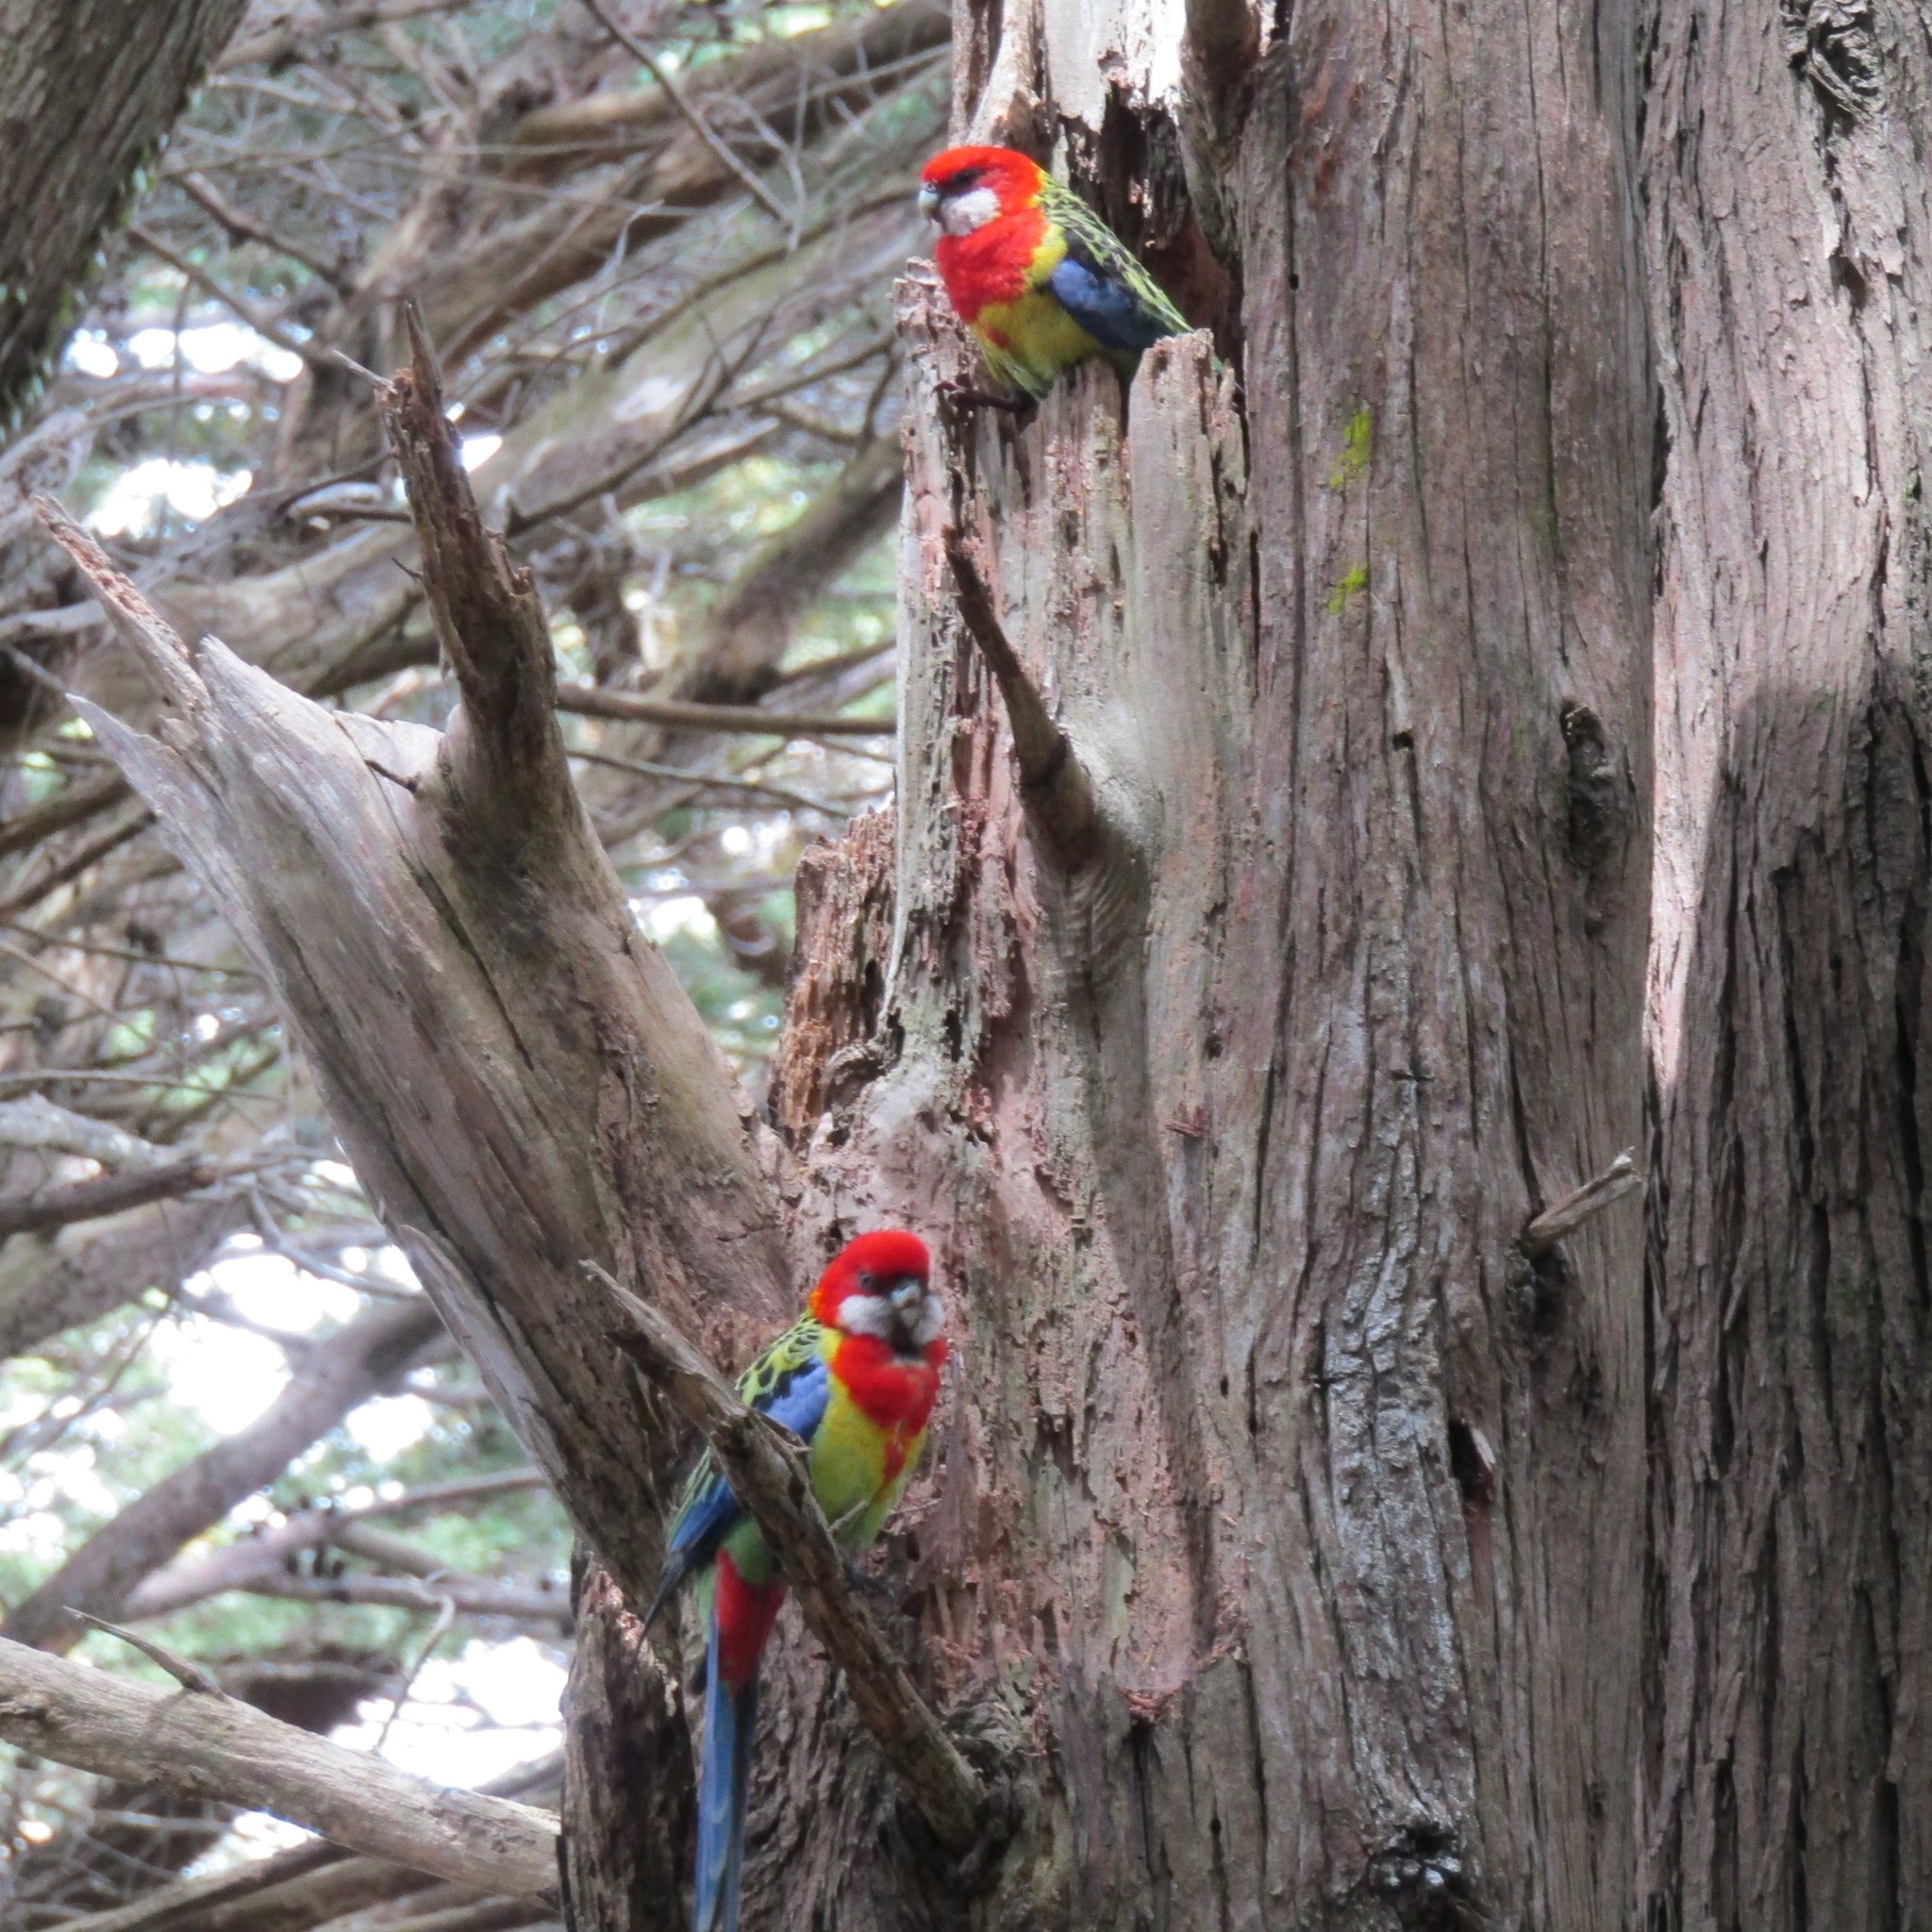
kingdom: Animalia
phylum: Chordata
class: Aves
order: Psittaciformes
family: Psittacidae
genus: Platycercus
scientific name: Platycercus eximius
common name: Eastern rosella
